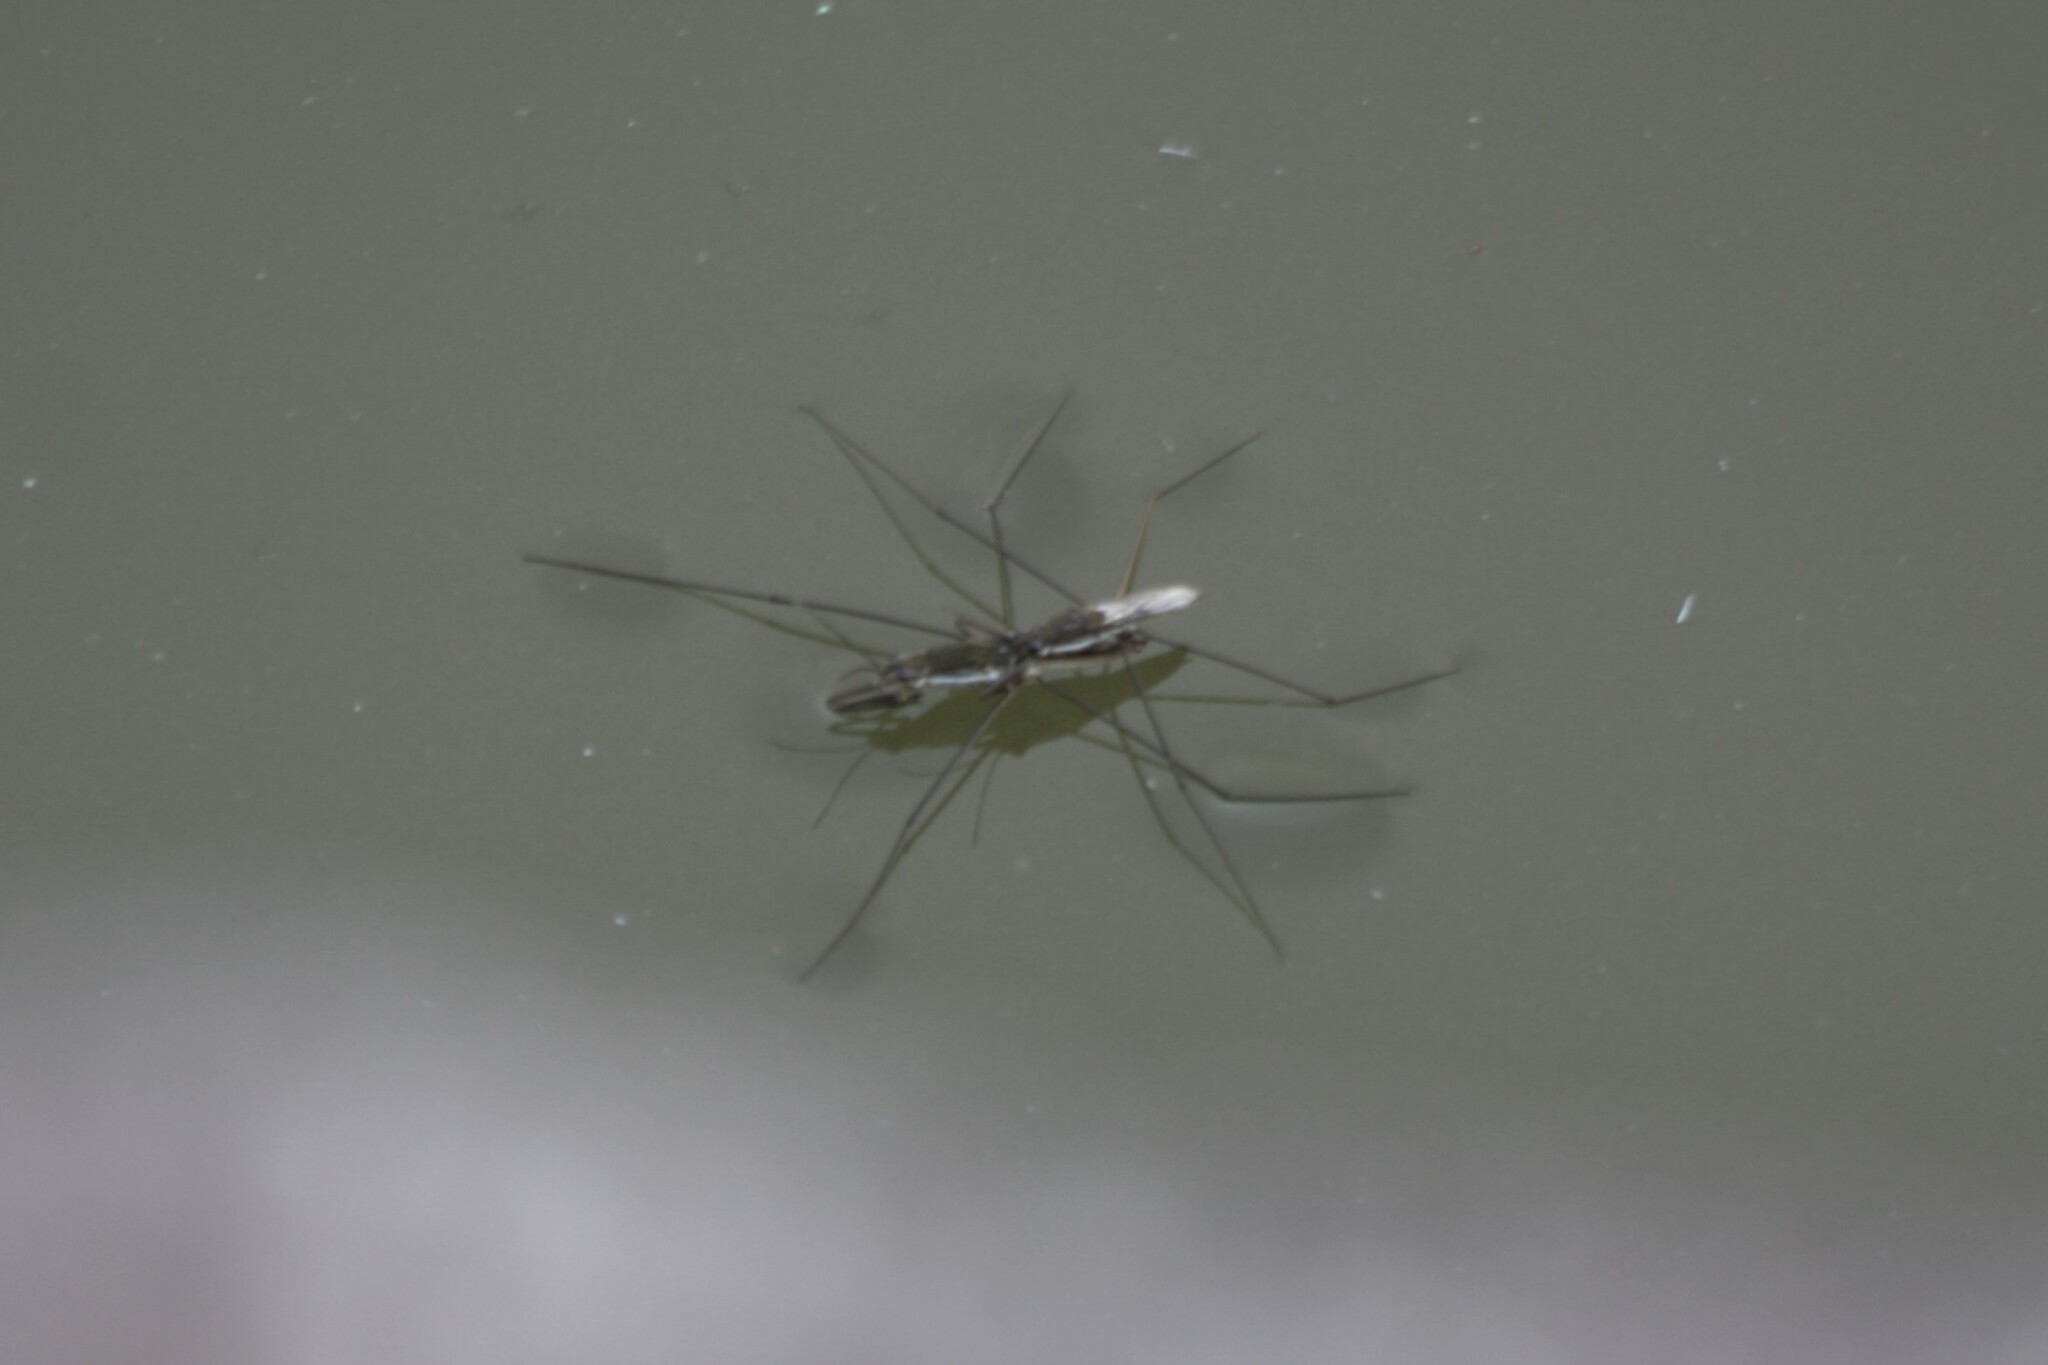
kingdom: Animalia
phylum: Arthropoda
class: Insecta
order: Hemiptera
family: Gerridae
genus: Aquarius
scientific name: Aquarius paludum
